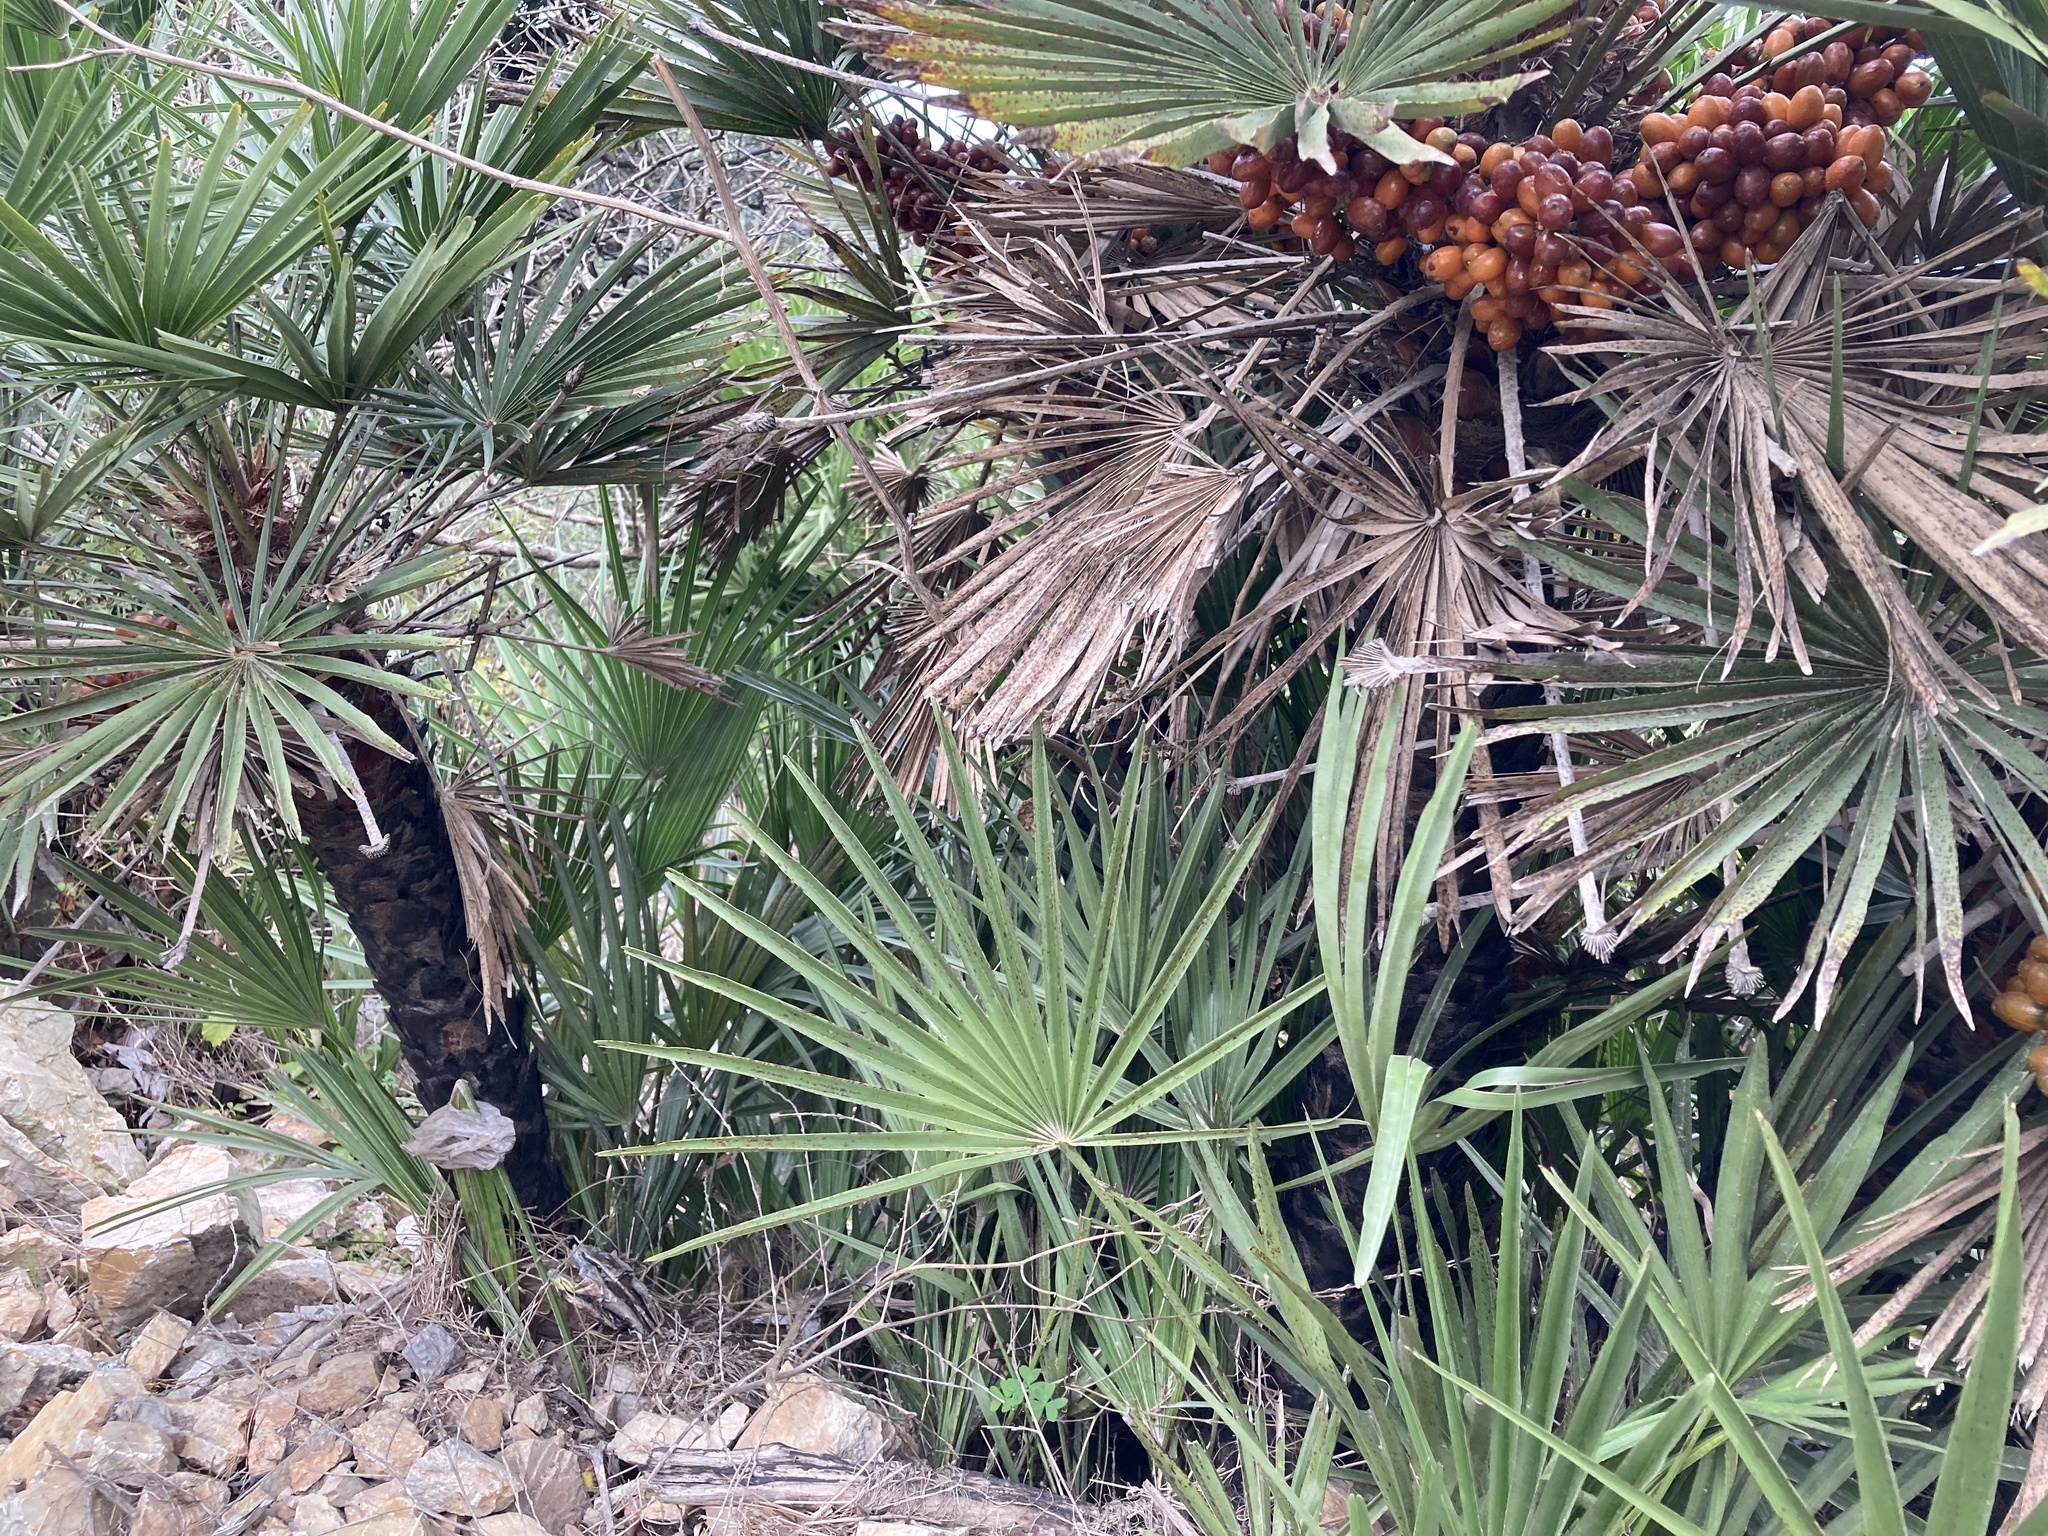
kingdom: Plantae
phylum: Tracheophyta
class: Liliopsida
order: Arecales
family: Arecaceae
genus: Chamaerops
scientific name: Chamaerops humilis
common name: Dwarf fan palm
